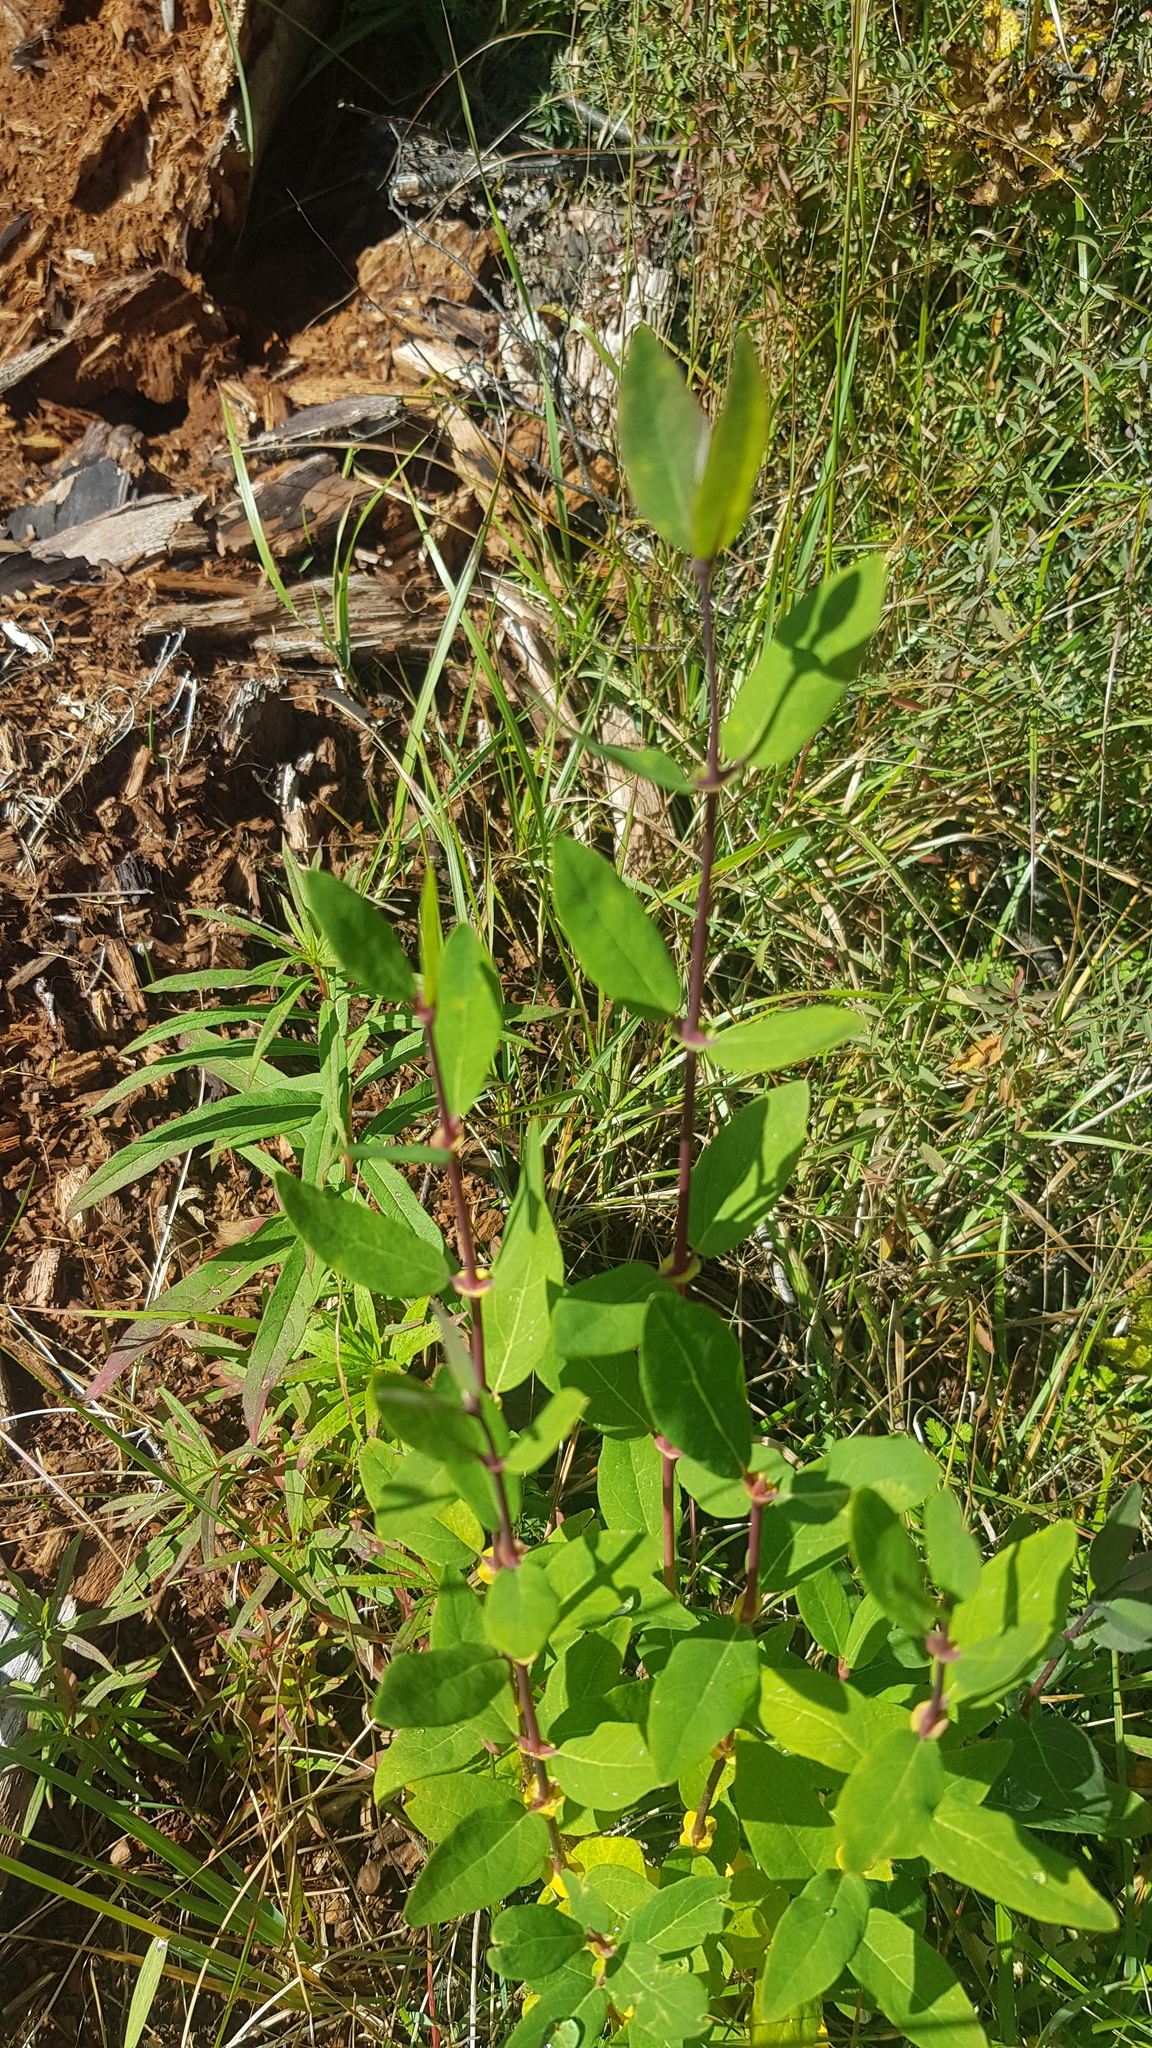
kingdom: Plantae
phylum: Tracheophyta
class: Magnoliopsida
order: Dipsacales
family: Caprifoliaceae
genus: Lonicera
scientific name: Lonicera caerulea
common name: Blue honeysuckle
